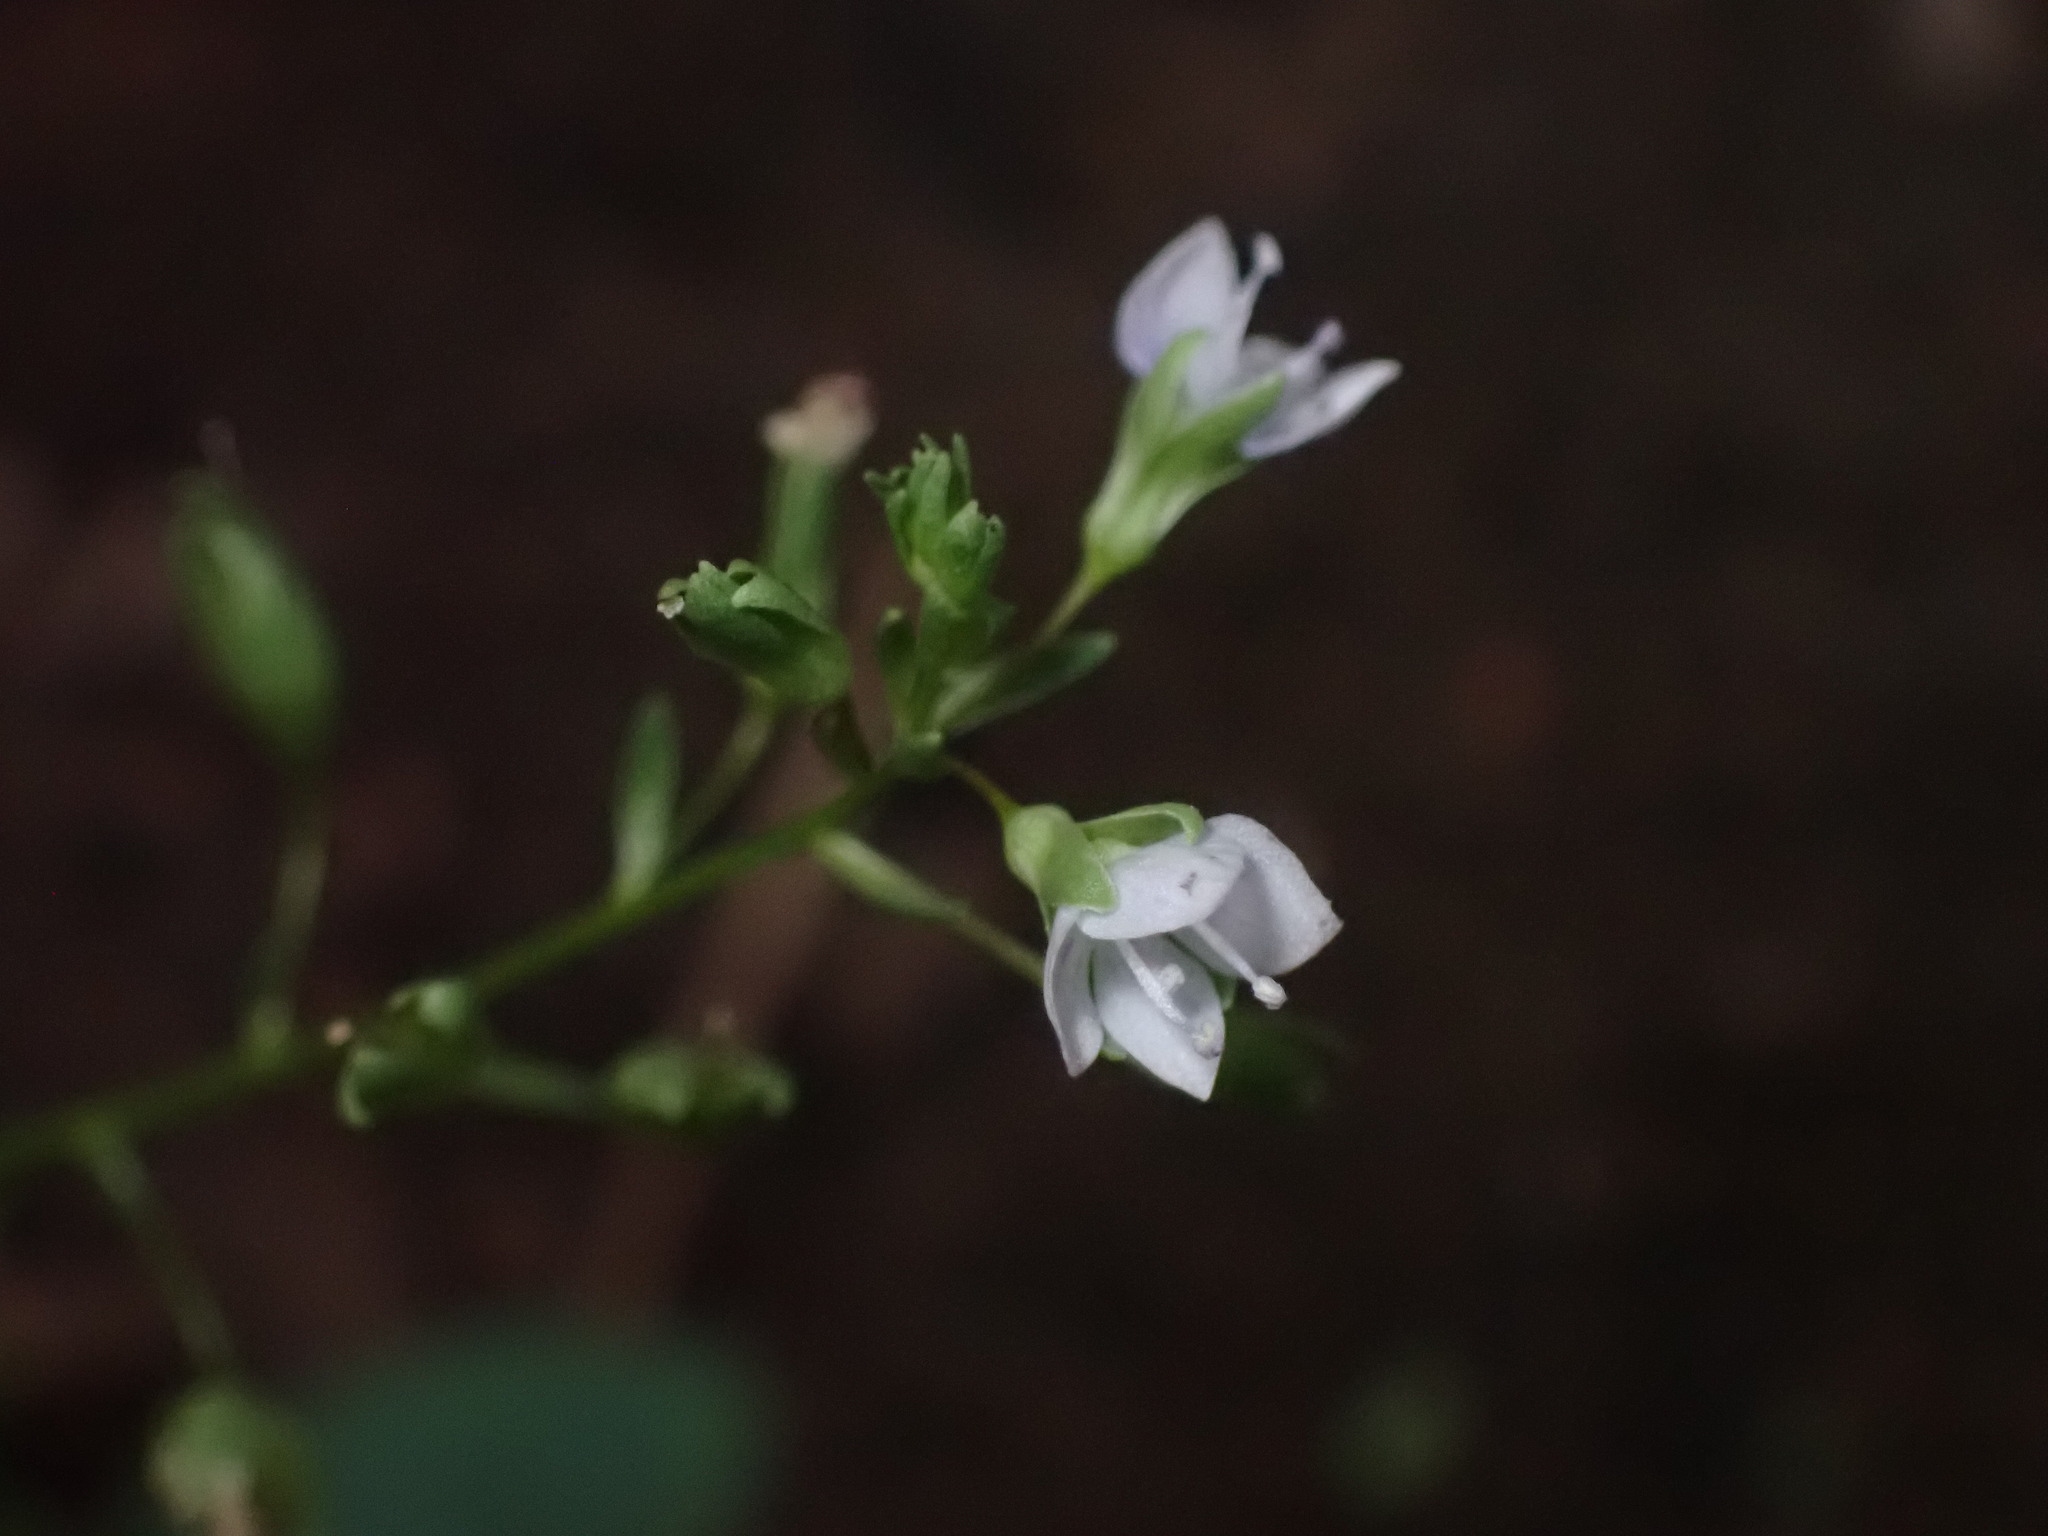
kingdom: Plantae
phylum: Tracheophyta
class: Magnoliopsida
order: Lamiales
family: Plantaginaceae
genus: Veronica
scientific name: Veronica catenata
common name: Pink water-speedwell
